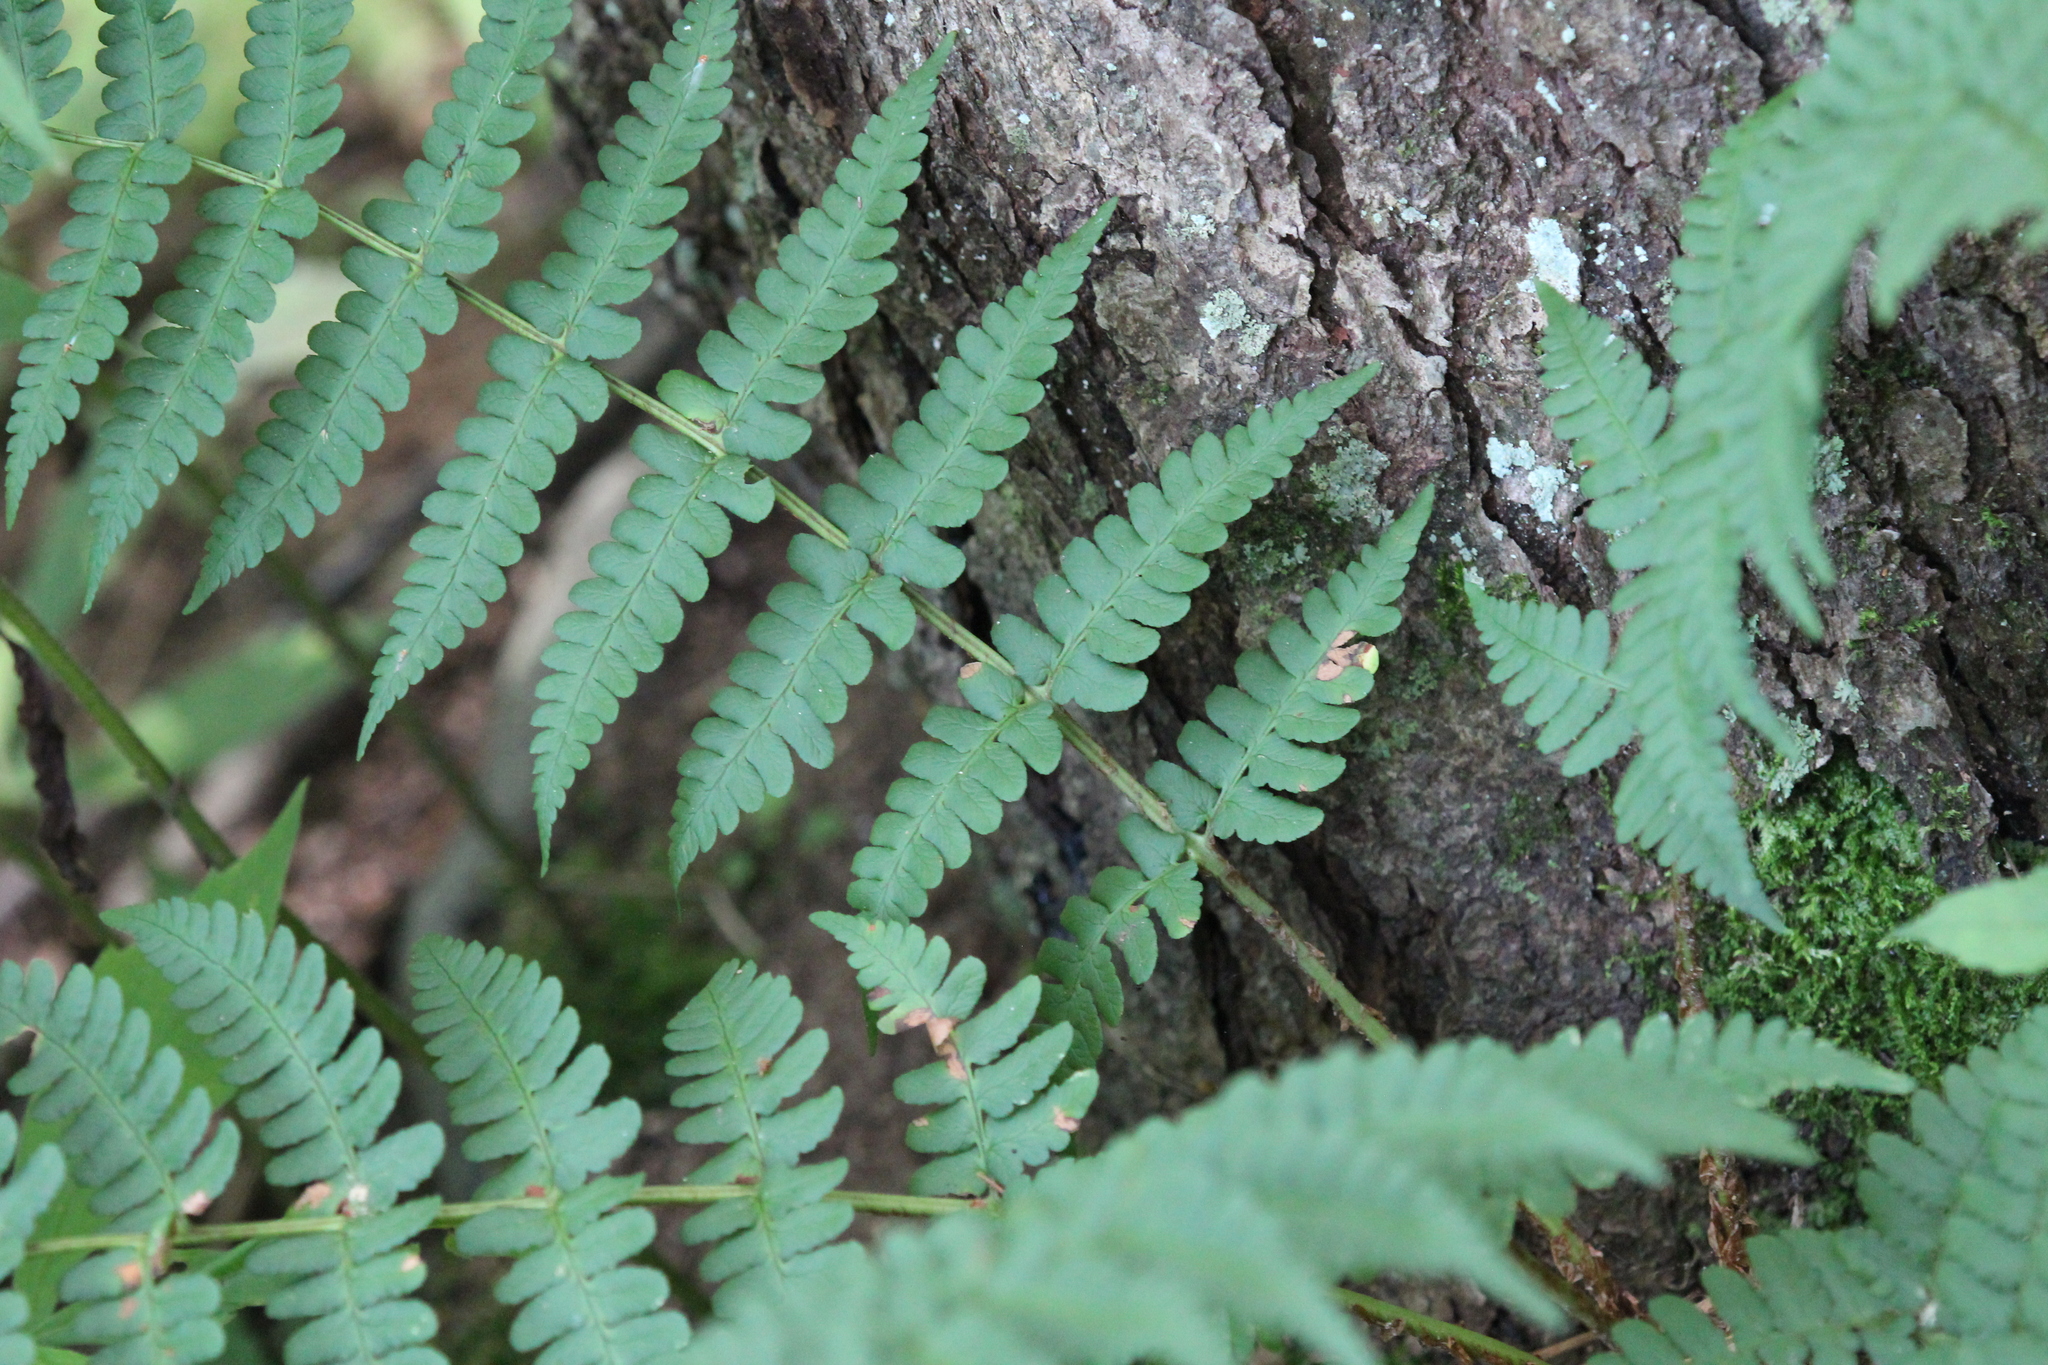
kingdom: Plantae
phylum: Tracheophyta
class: Polypodiopsida
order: Polypodiales
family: Dryopteridaceae
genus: Dryopteris
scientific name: Dryopteris marginalis
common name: Marginal wood fern
